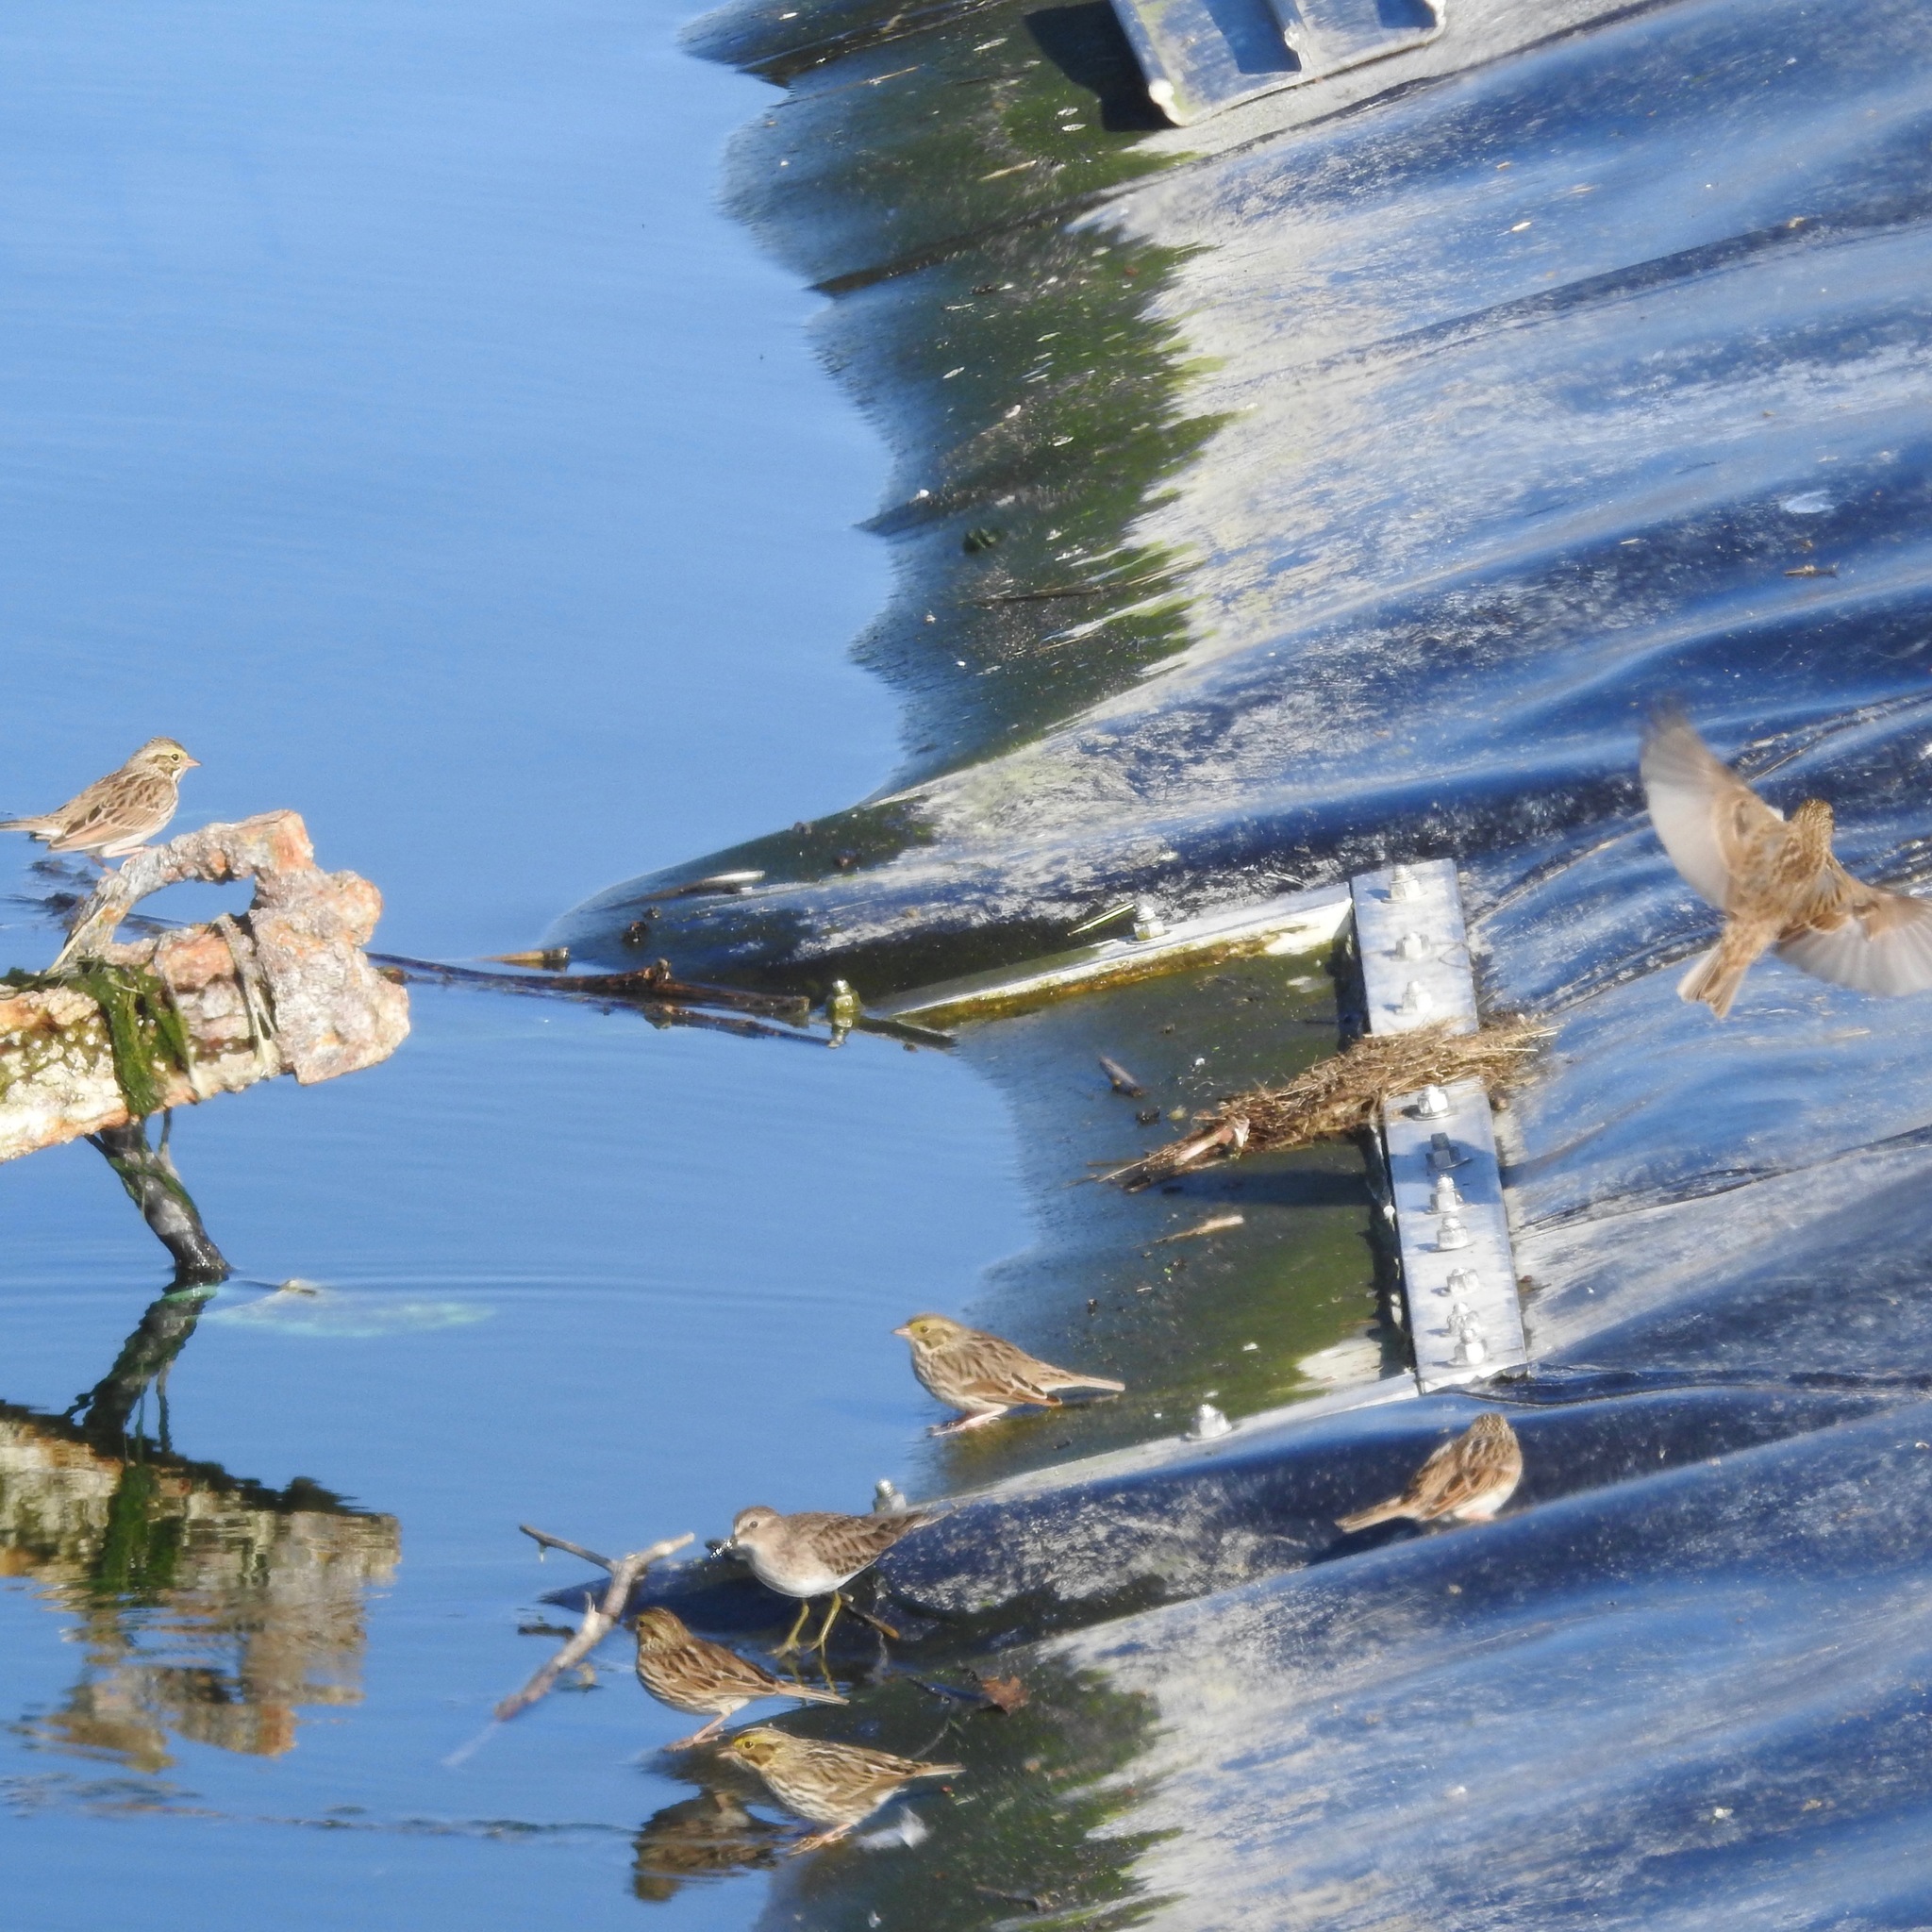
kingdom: Animalia
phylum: Chordata
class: Aves
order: Passeriformes
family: Passerellidae
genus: Passerculus
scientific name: Passerculus sandwichensis
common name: Savannah sparrow
